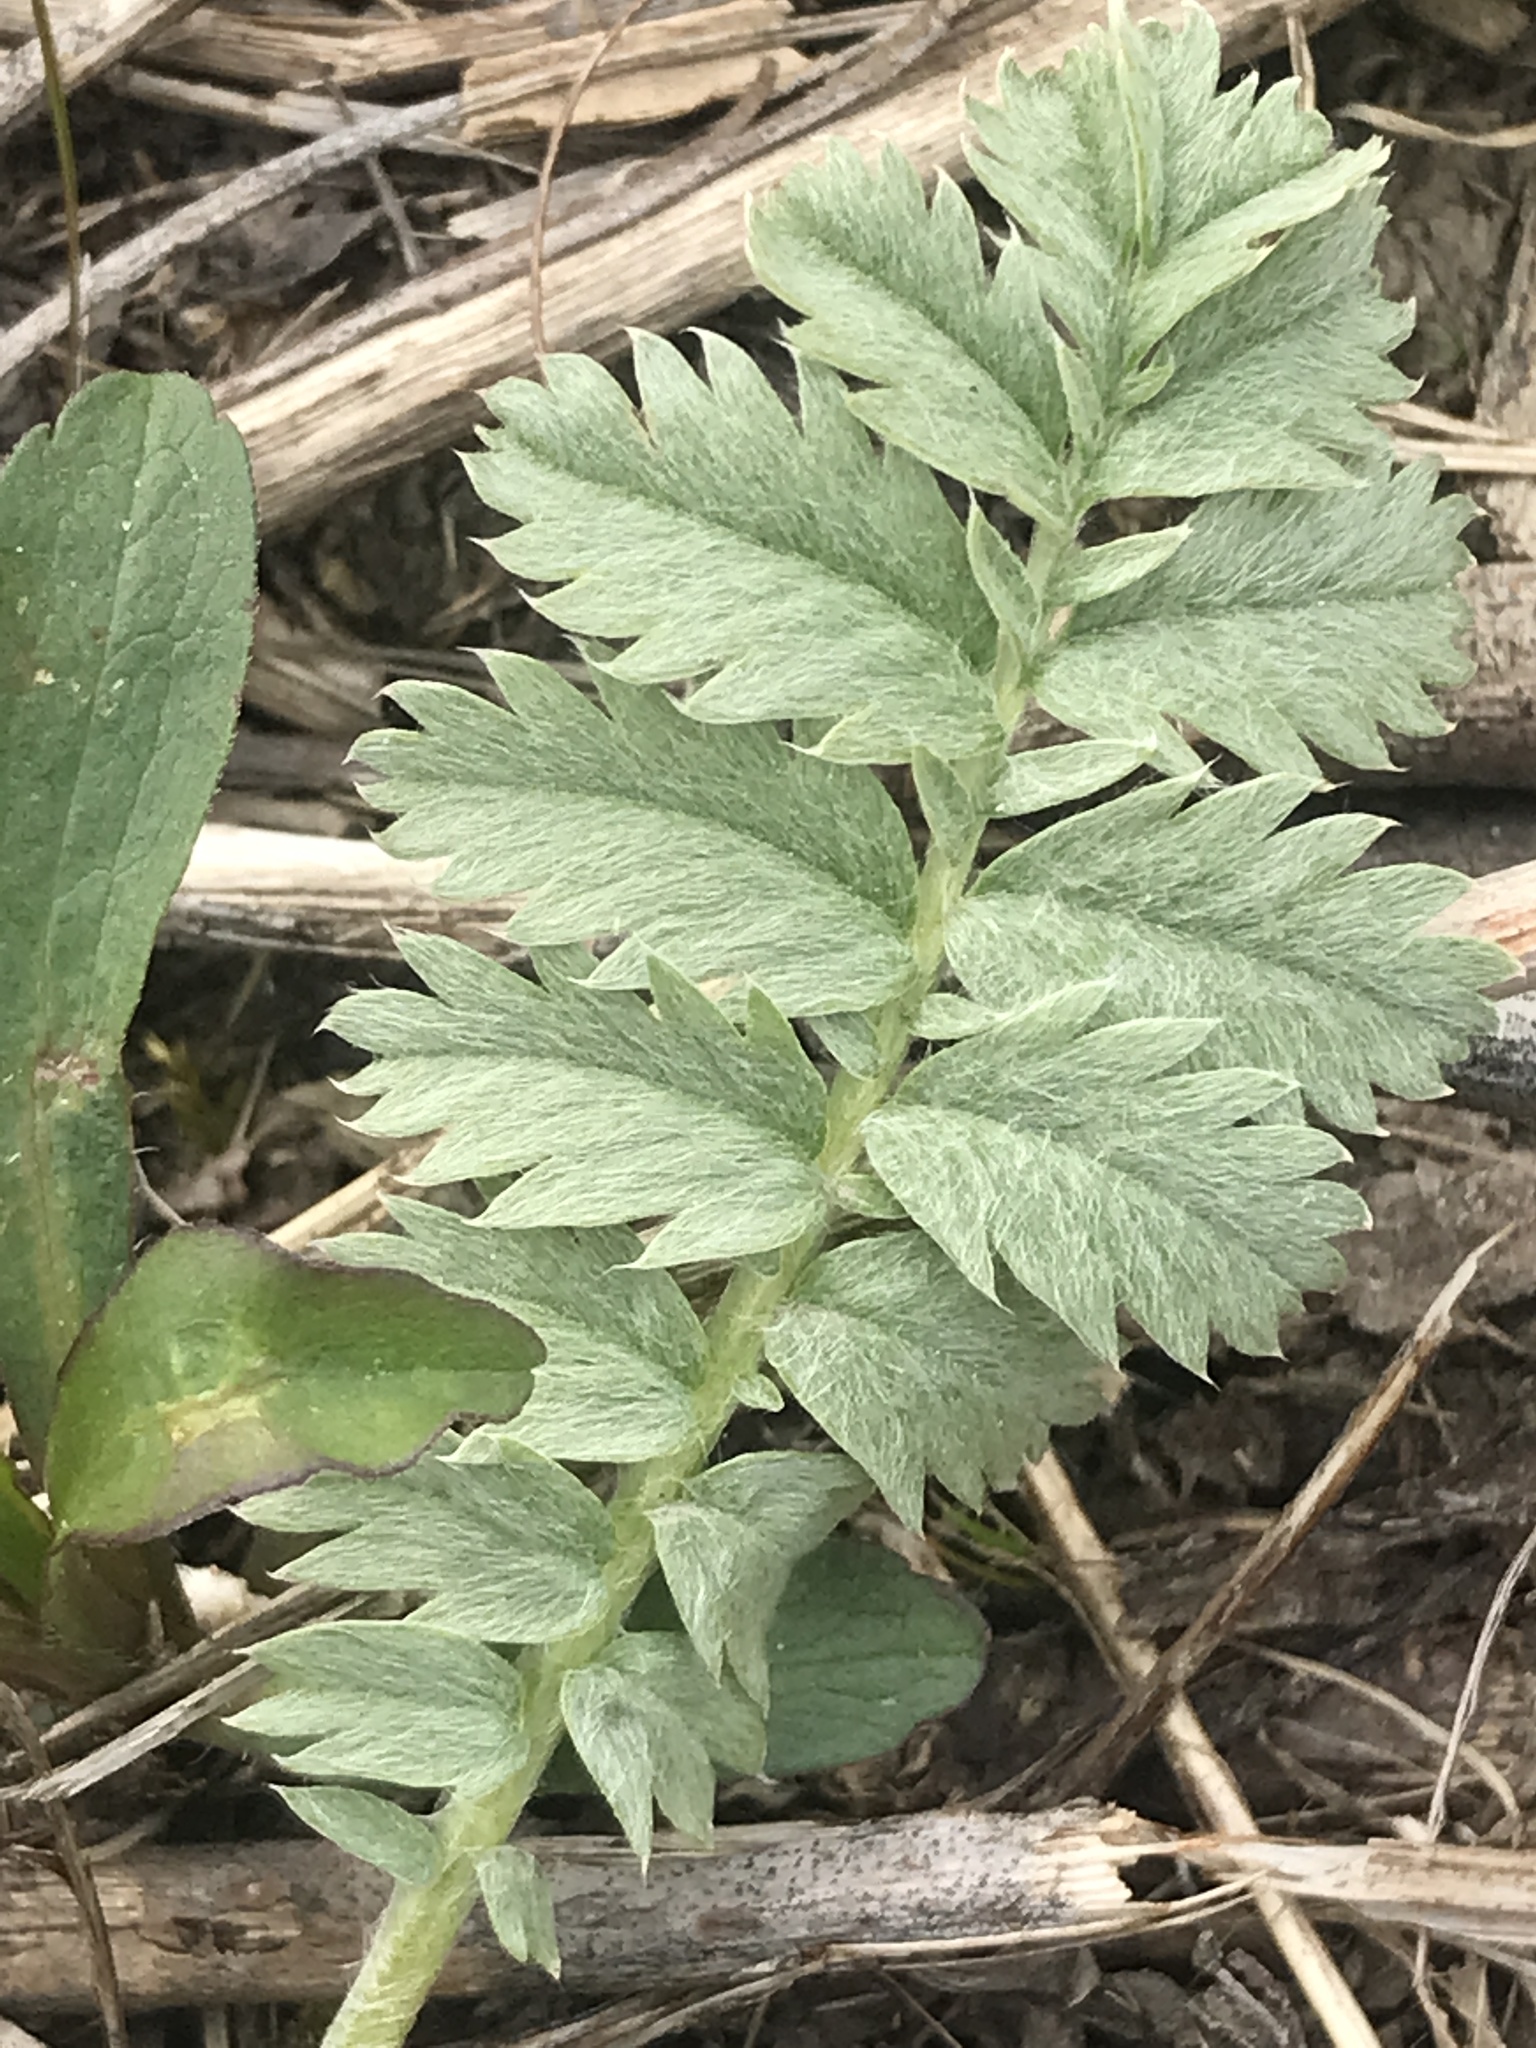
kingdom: Plantae
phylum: Tracheophyta
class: Magnoliopsida
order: Rosales
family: Rosaceae
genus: Argentina
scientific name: Argentina anserina
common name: Common silverweed
